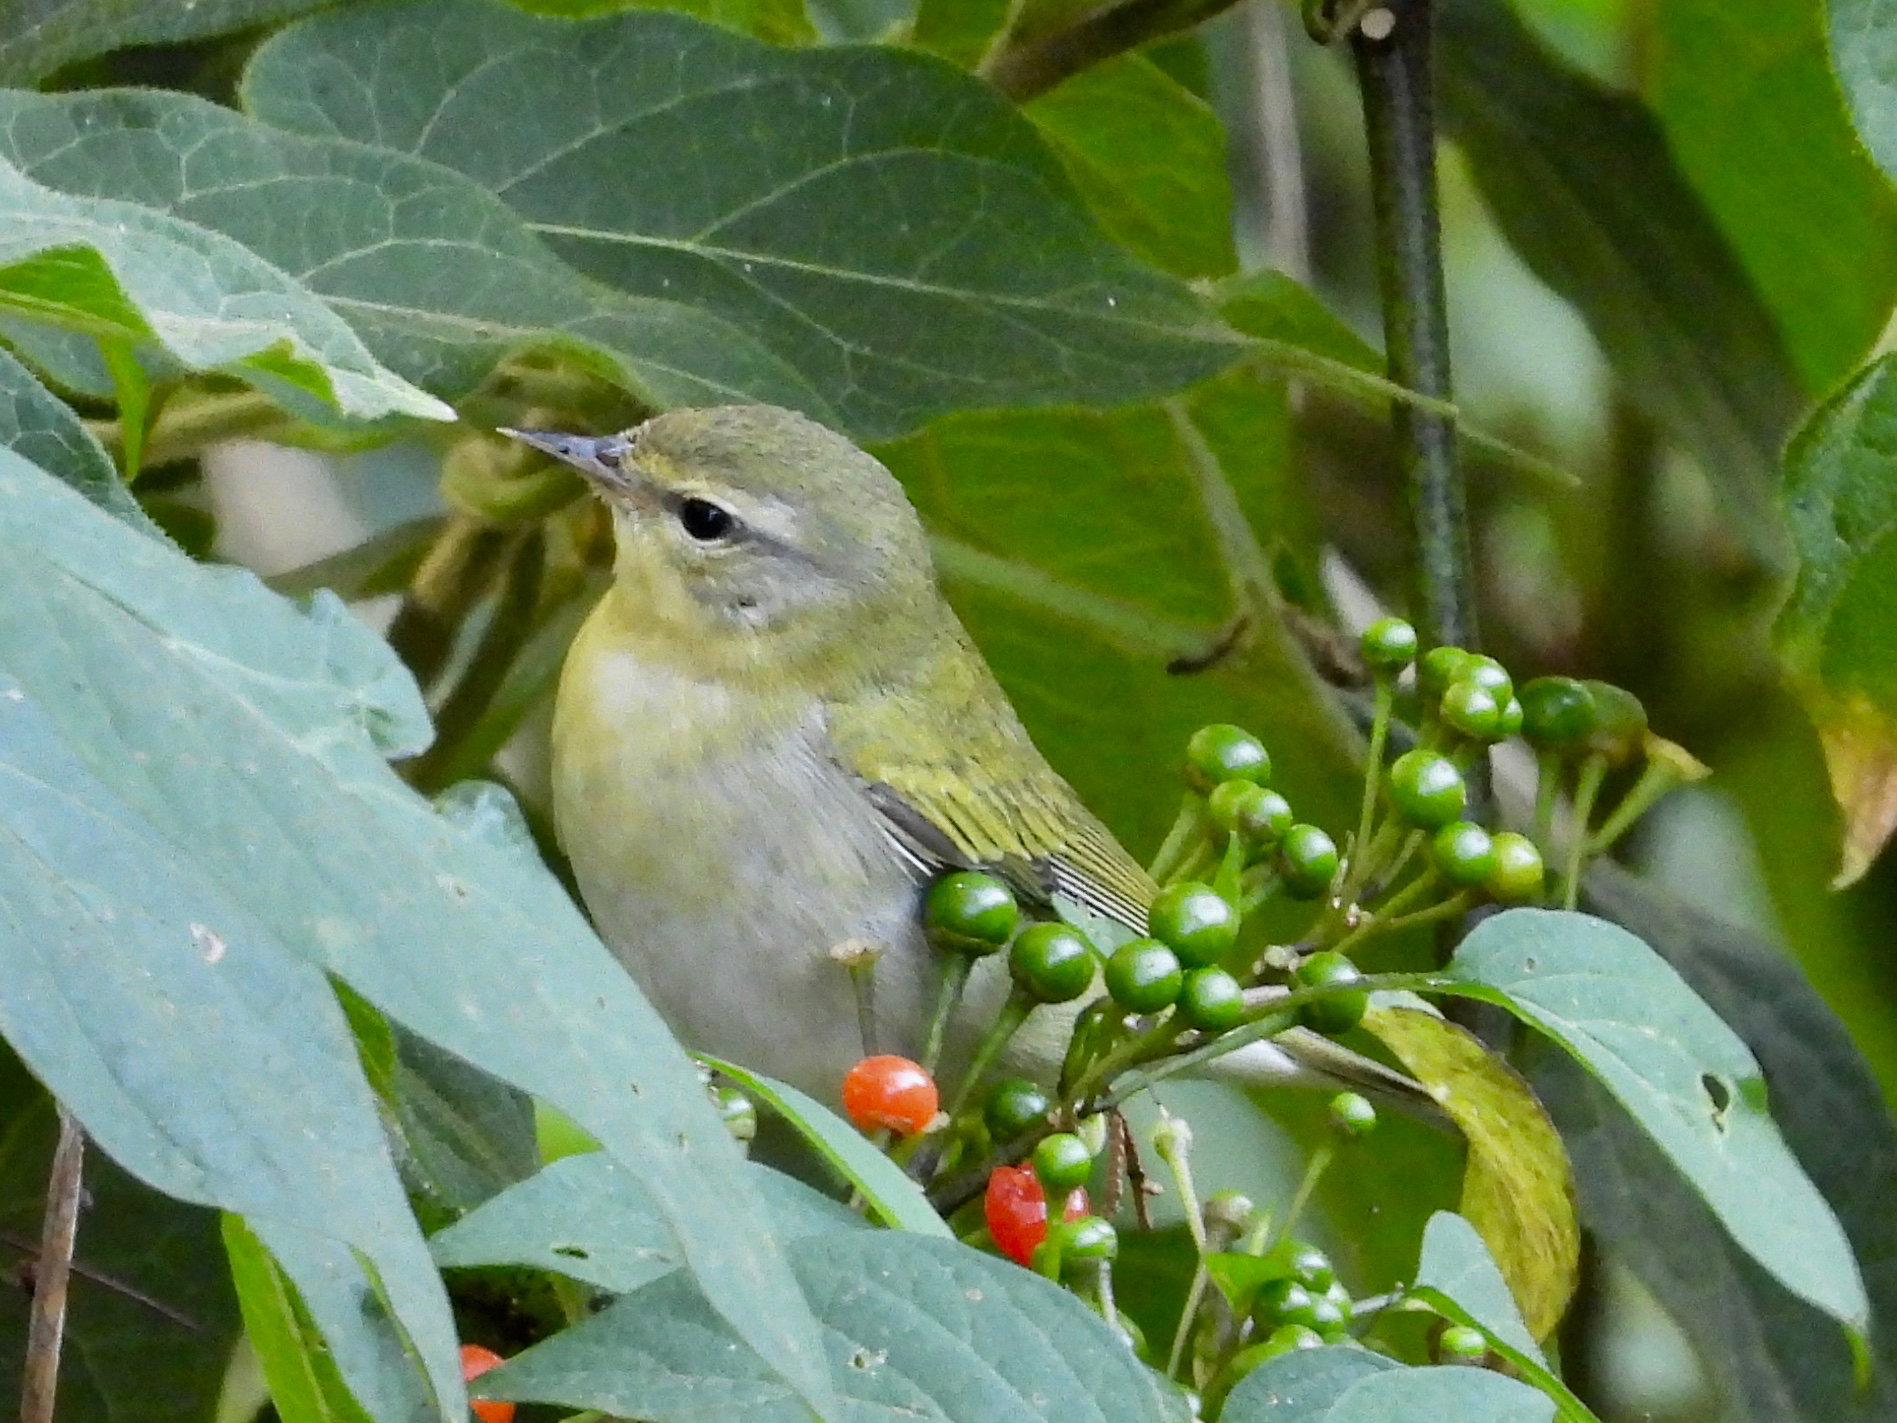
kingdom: Animalia
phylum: Chordata
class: Aves
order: Passeriformes
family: Parulidae
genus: Leiothlypis
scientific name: Leiothlypis peregrina
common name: Tennessee warbler
